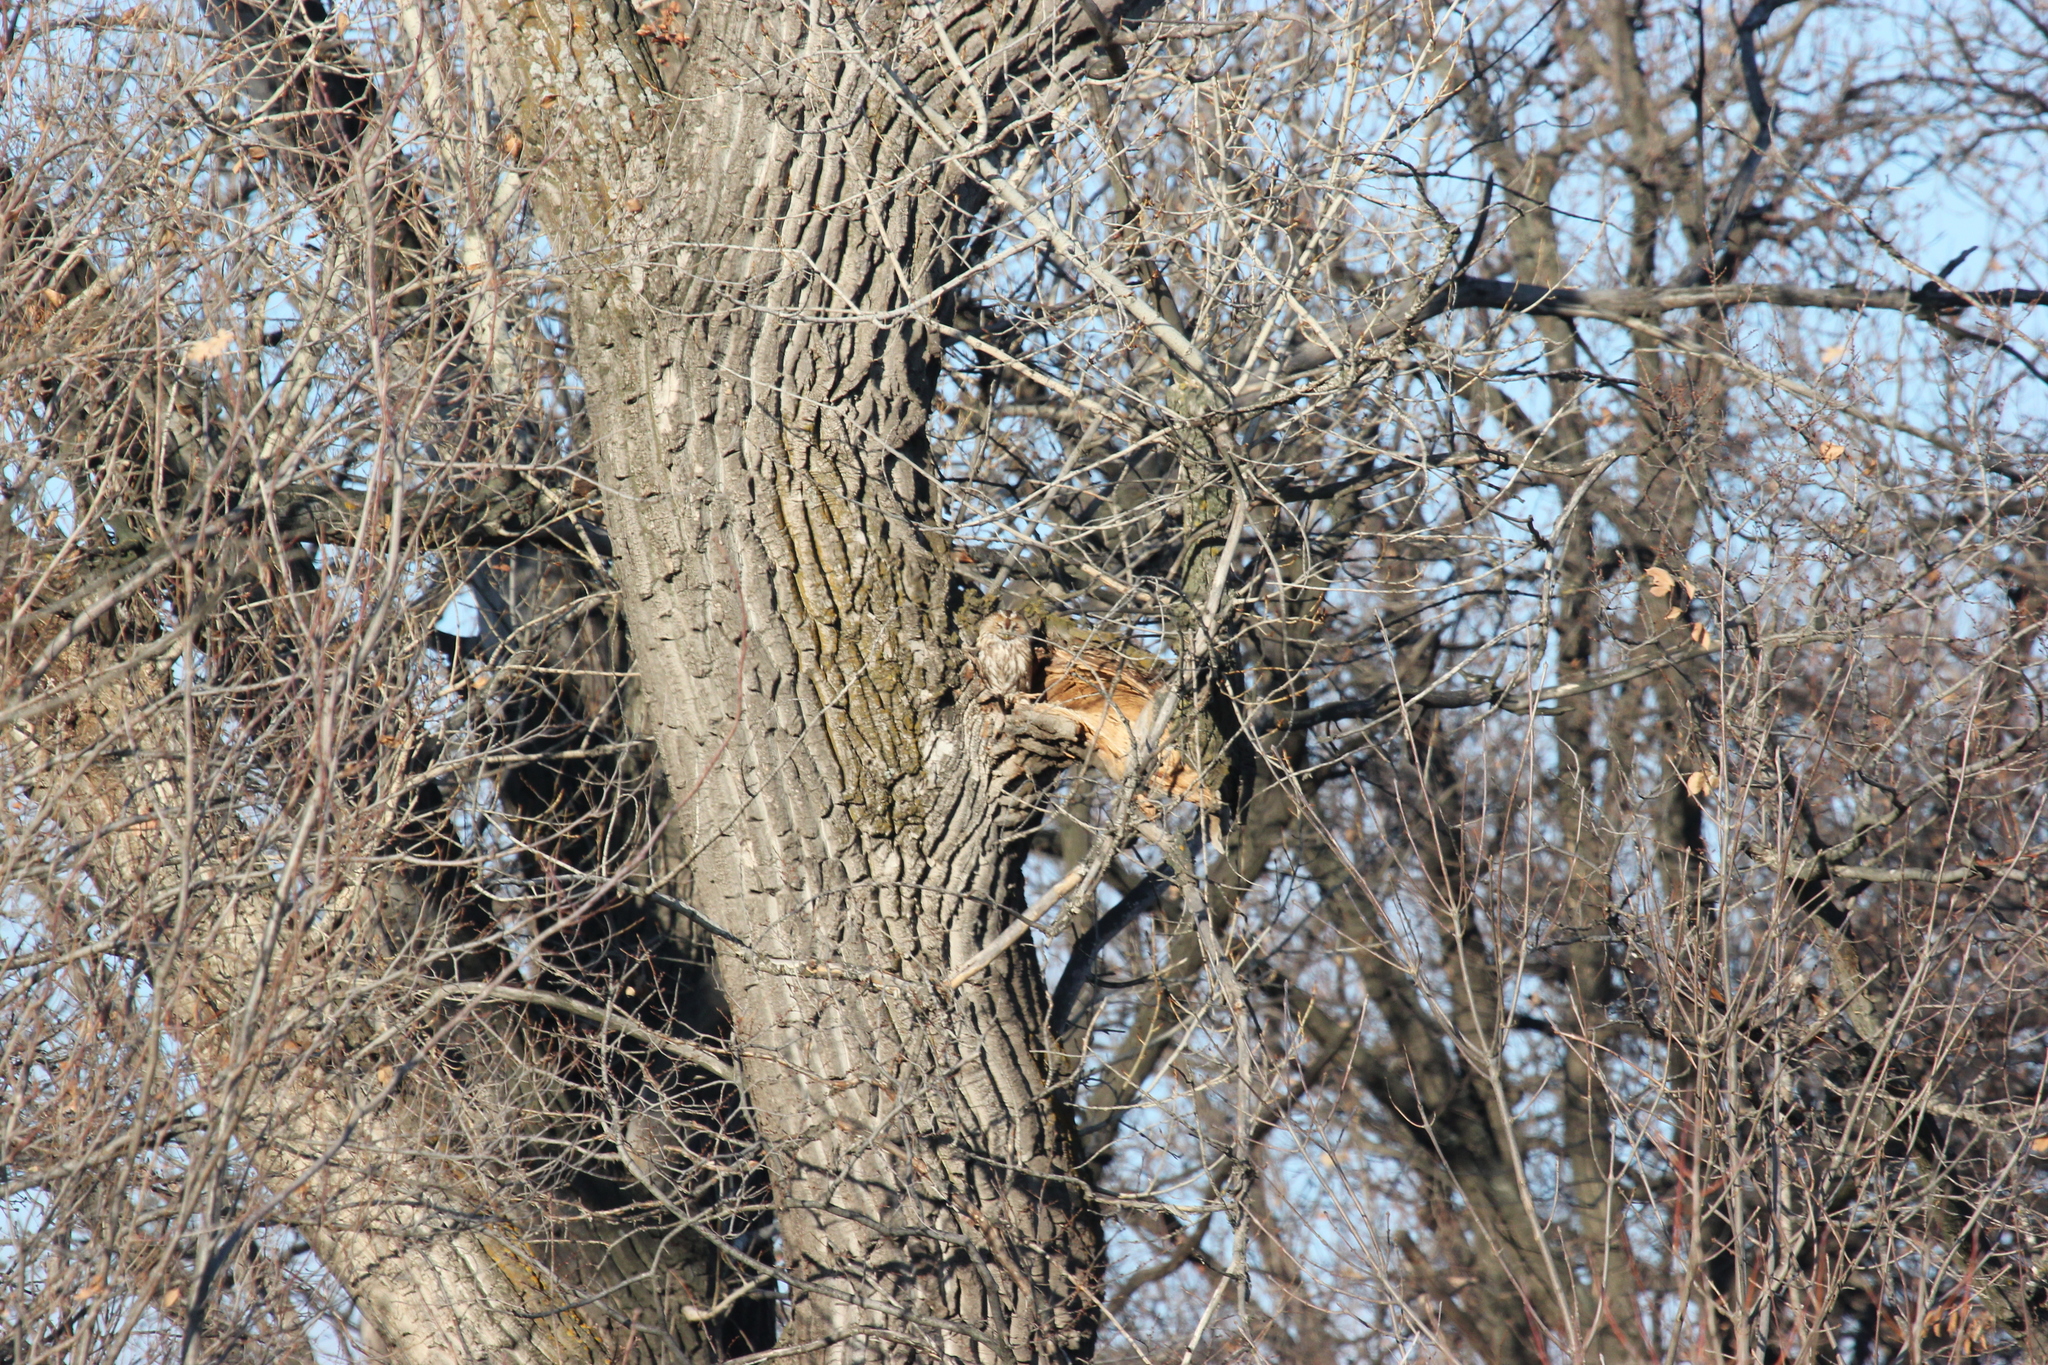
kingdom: Animalia
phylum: Chordata
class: Aves
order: Strigiformes
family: Strigidae
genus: Strix
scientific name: Strix aluco
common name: Tawny owl
